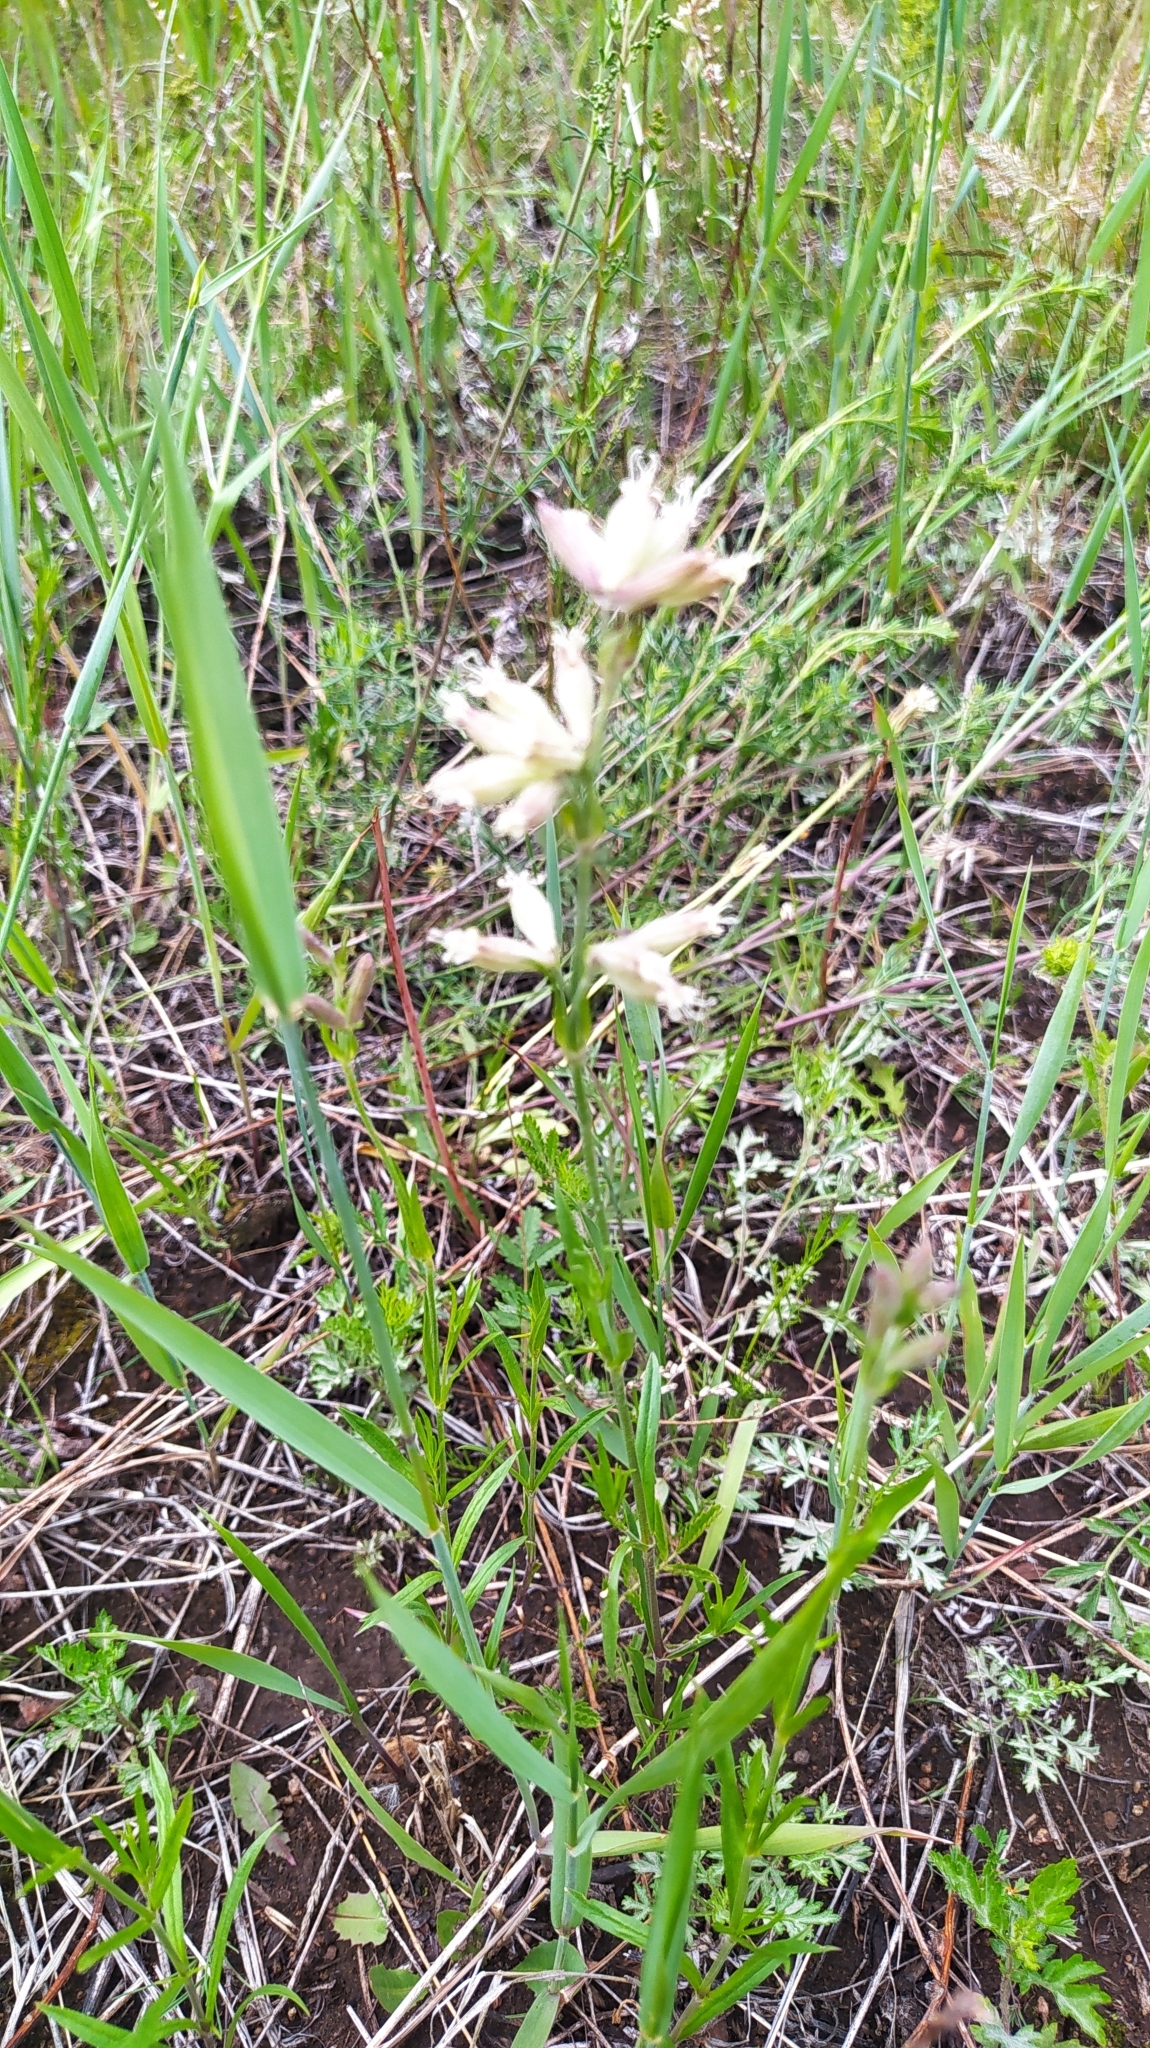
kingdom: Plantae
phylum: Tracheophyta
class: Magnoliopsida
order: Caryophyllales
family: Caryophyllaceae
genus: Silene
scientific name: Silene amoena
